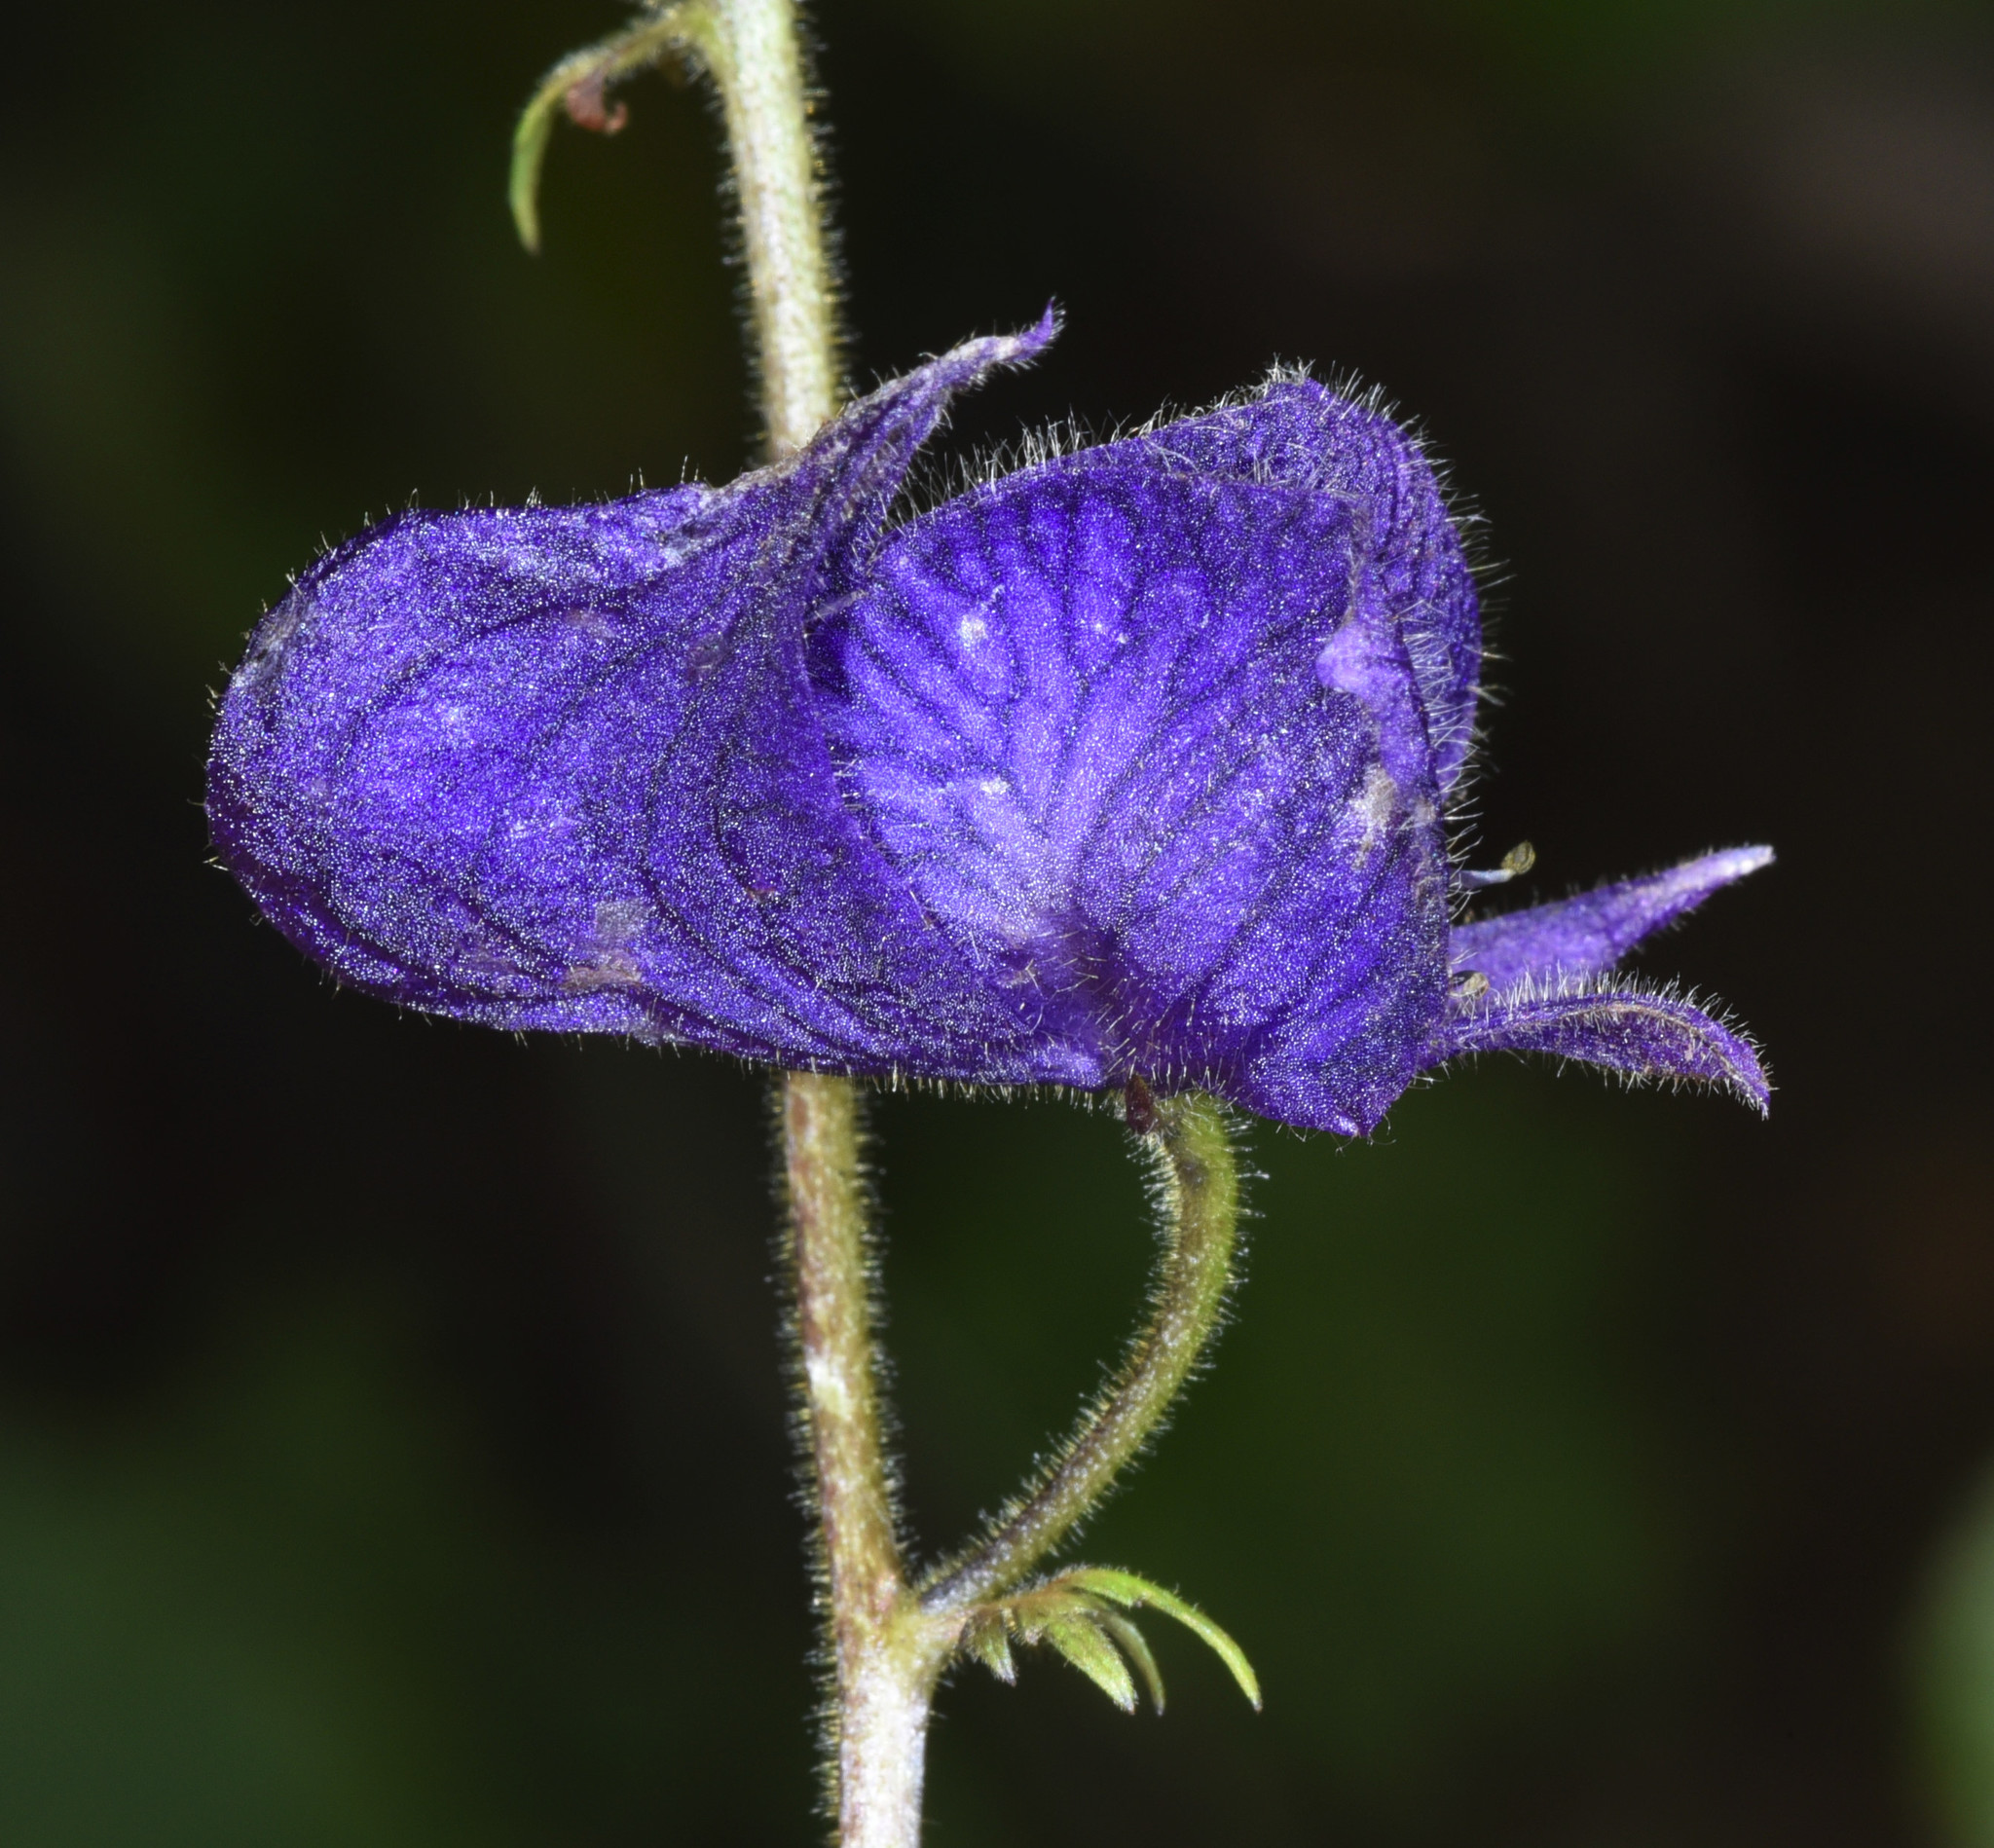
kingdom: Plantae
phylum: Tracheophyta
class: Magnoliopsida
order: Ranunculales
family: Ranunculaceae
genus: Aconitum
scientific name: Aconitum columbianum
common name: Columbia aconite
